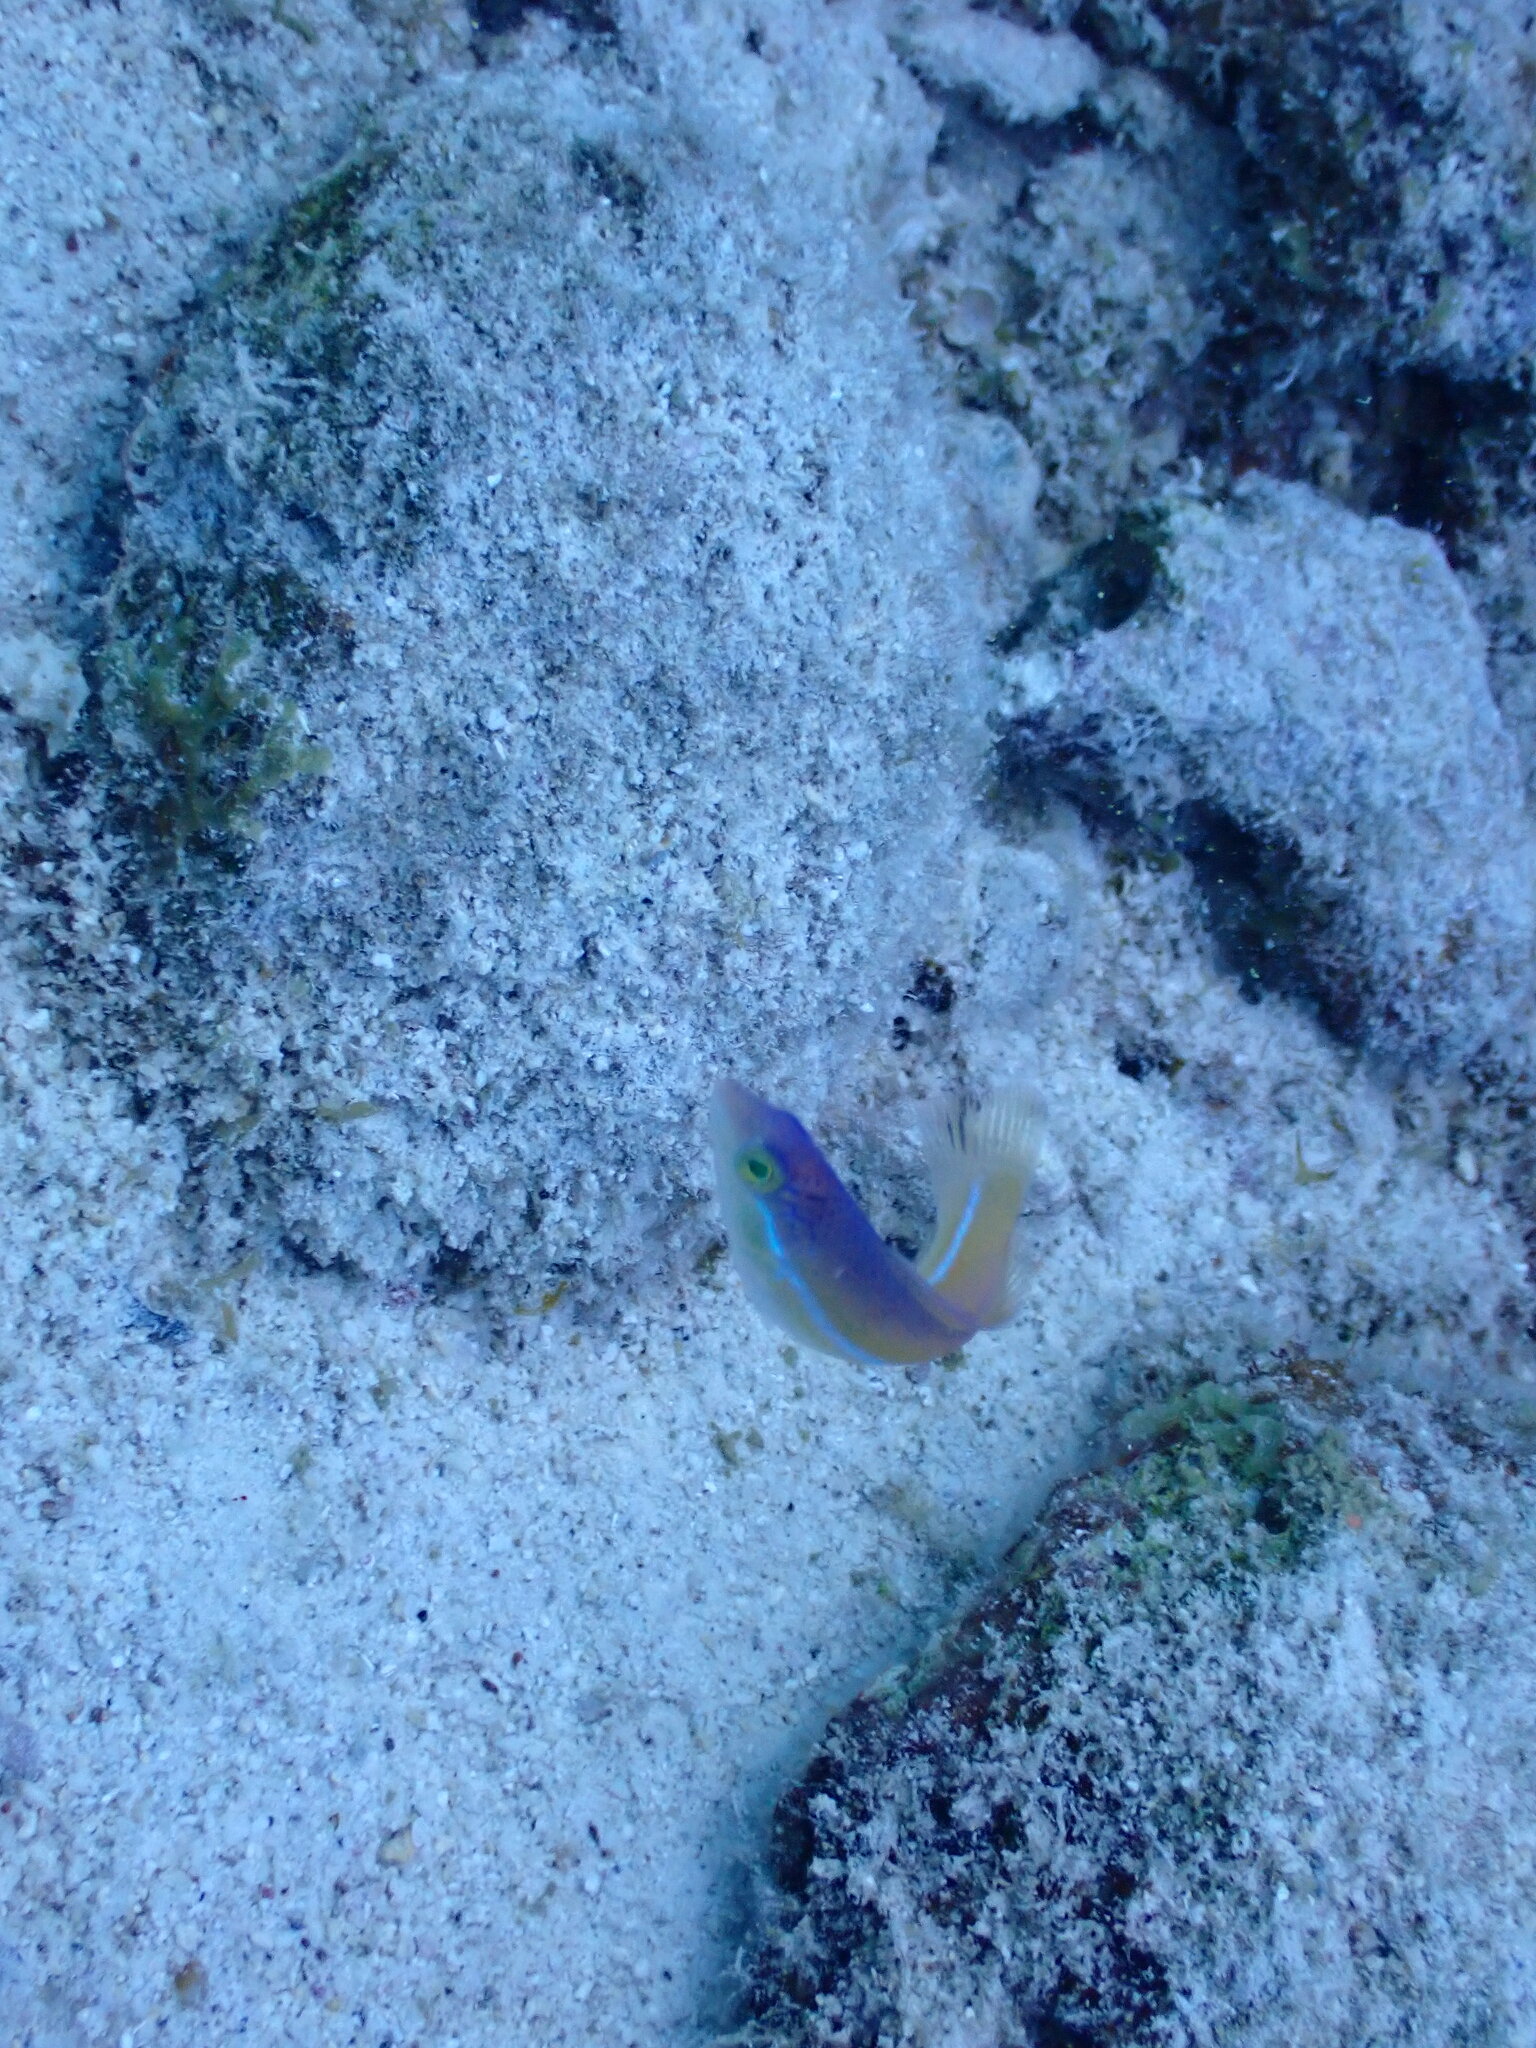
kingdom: Animalia
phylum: Chordata
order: Perciformes
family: Labridae
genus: Halichoeres
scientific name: Halichoeres garnoti
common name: Yellowhead wrasse
